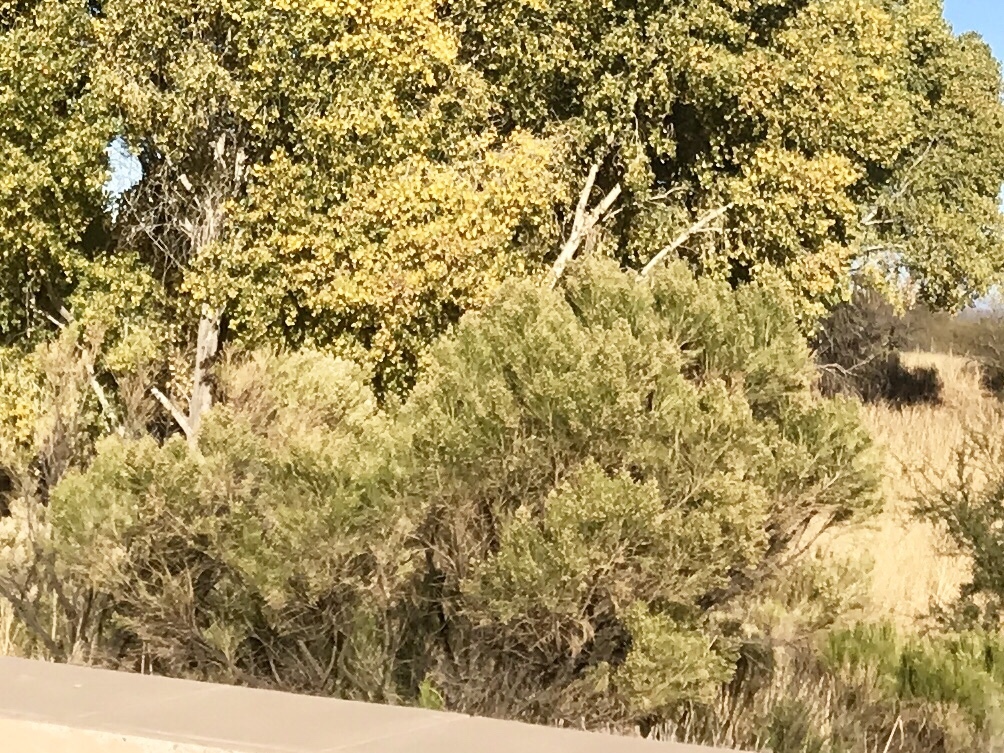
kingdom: Plantae
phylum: Tracheophyta
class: Magnoliopsida
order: Asterales
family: Asteraceae
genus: Baccharis
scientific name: Baccharis sarothroides
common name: Desert-broom
